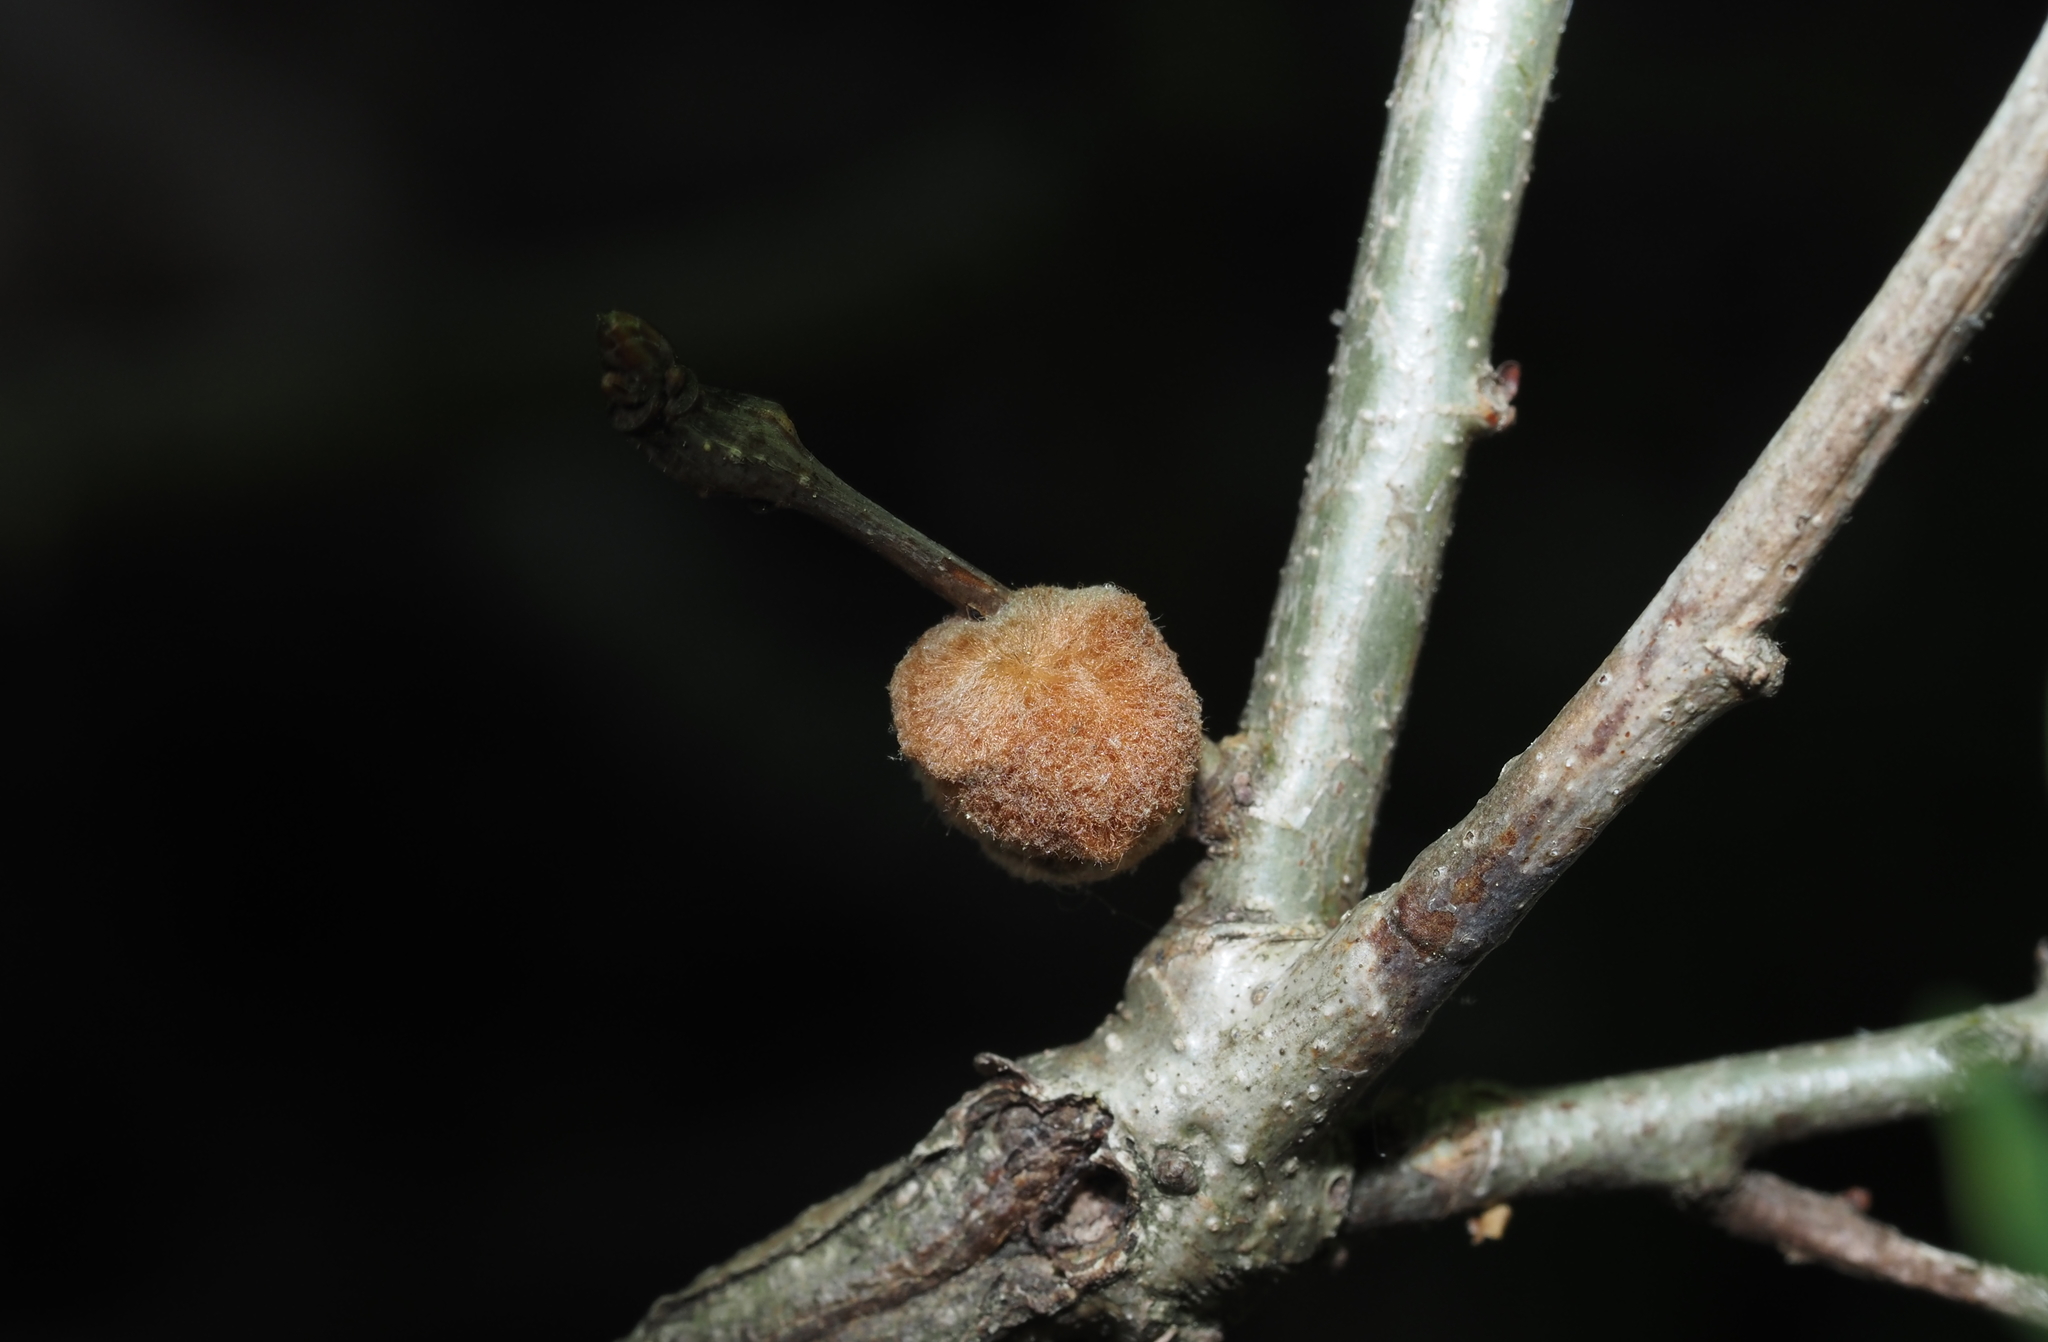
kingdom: Animalia
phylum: Arthropoda
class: Insecta
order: Hymenoptera
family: Cynipidae
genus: Andricus
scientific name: Andricus quercusflocci
